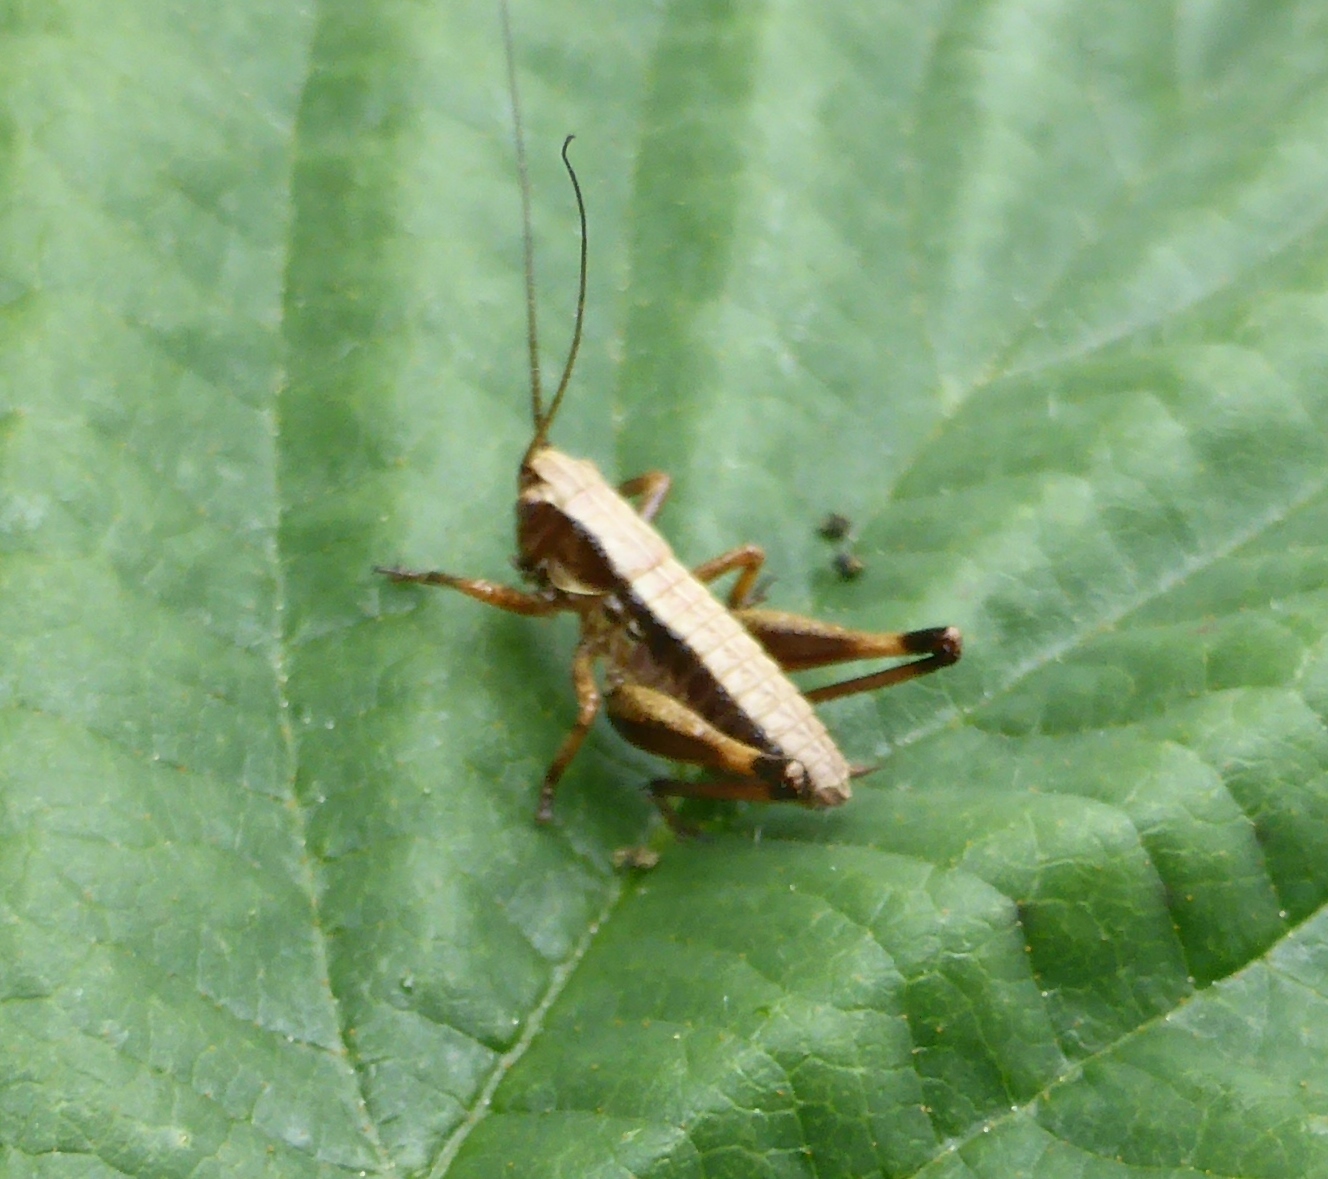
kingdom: Animalia
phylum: Arthropoda
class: Insecta
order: Orthoptera
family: Tettigoniidae
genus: Pholidoptera
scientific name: Pholidoptera griseoaptera
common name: Dark bush-cricket
